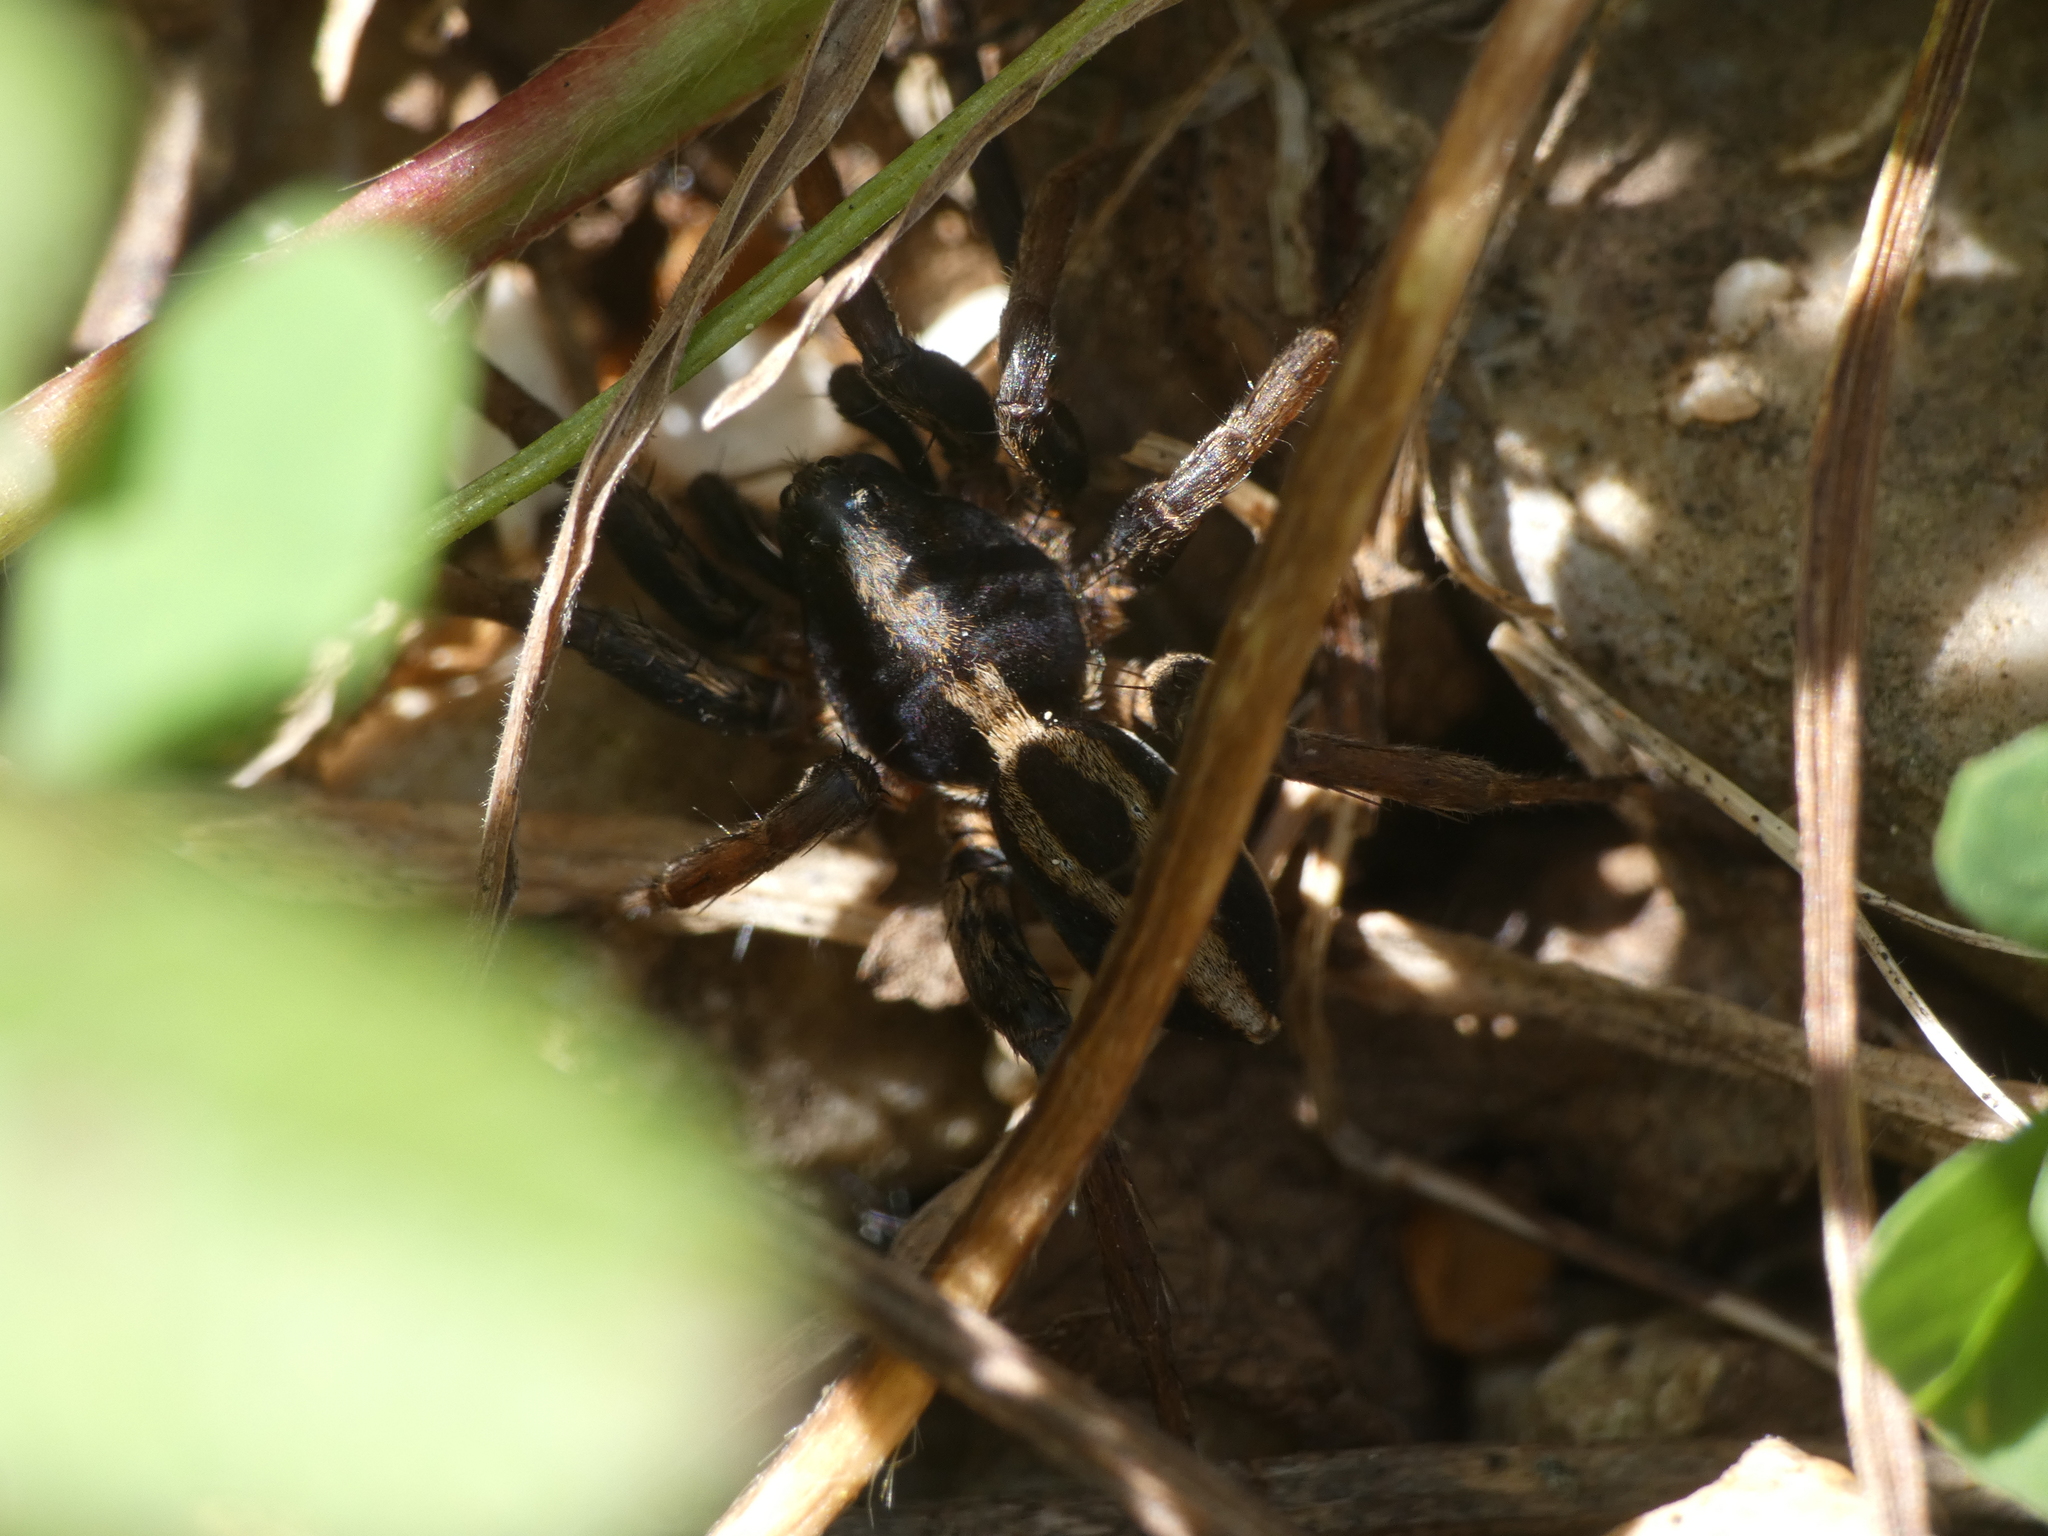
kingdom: Animalia
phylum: Arthropoda
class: Arachnida
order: Araneae
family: Lycosidae
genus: Alopecosa
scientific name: Alopecosa albofasciata
